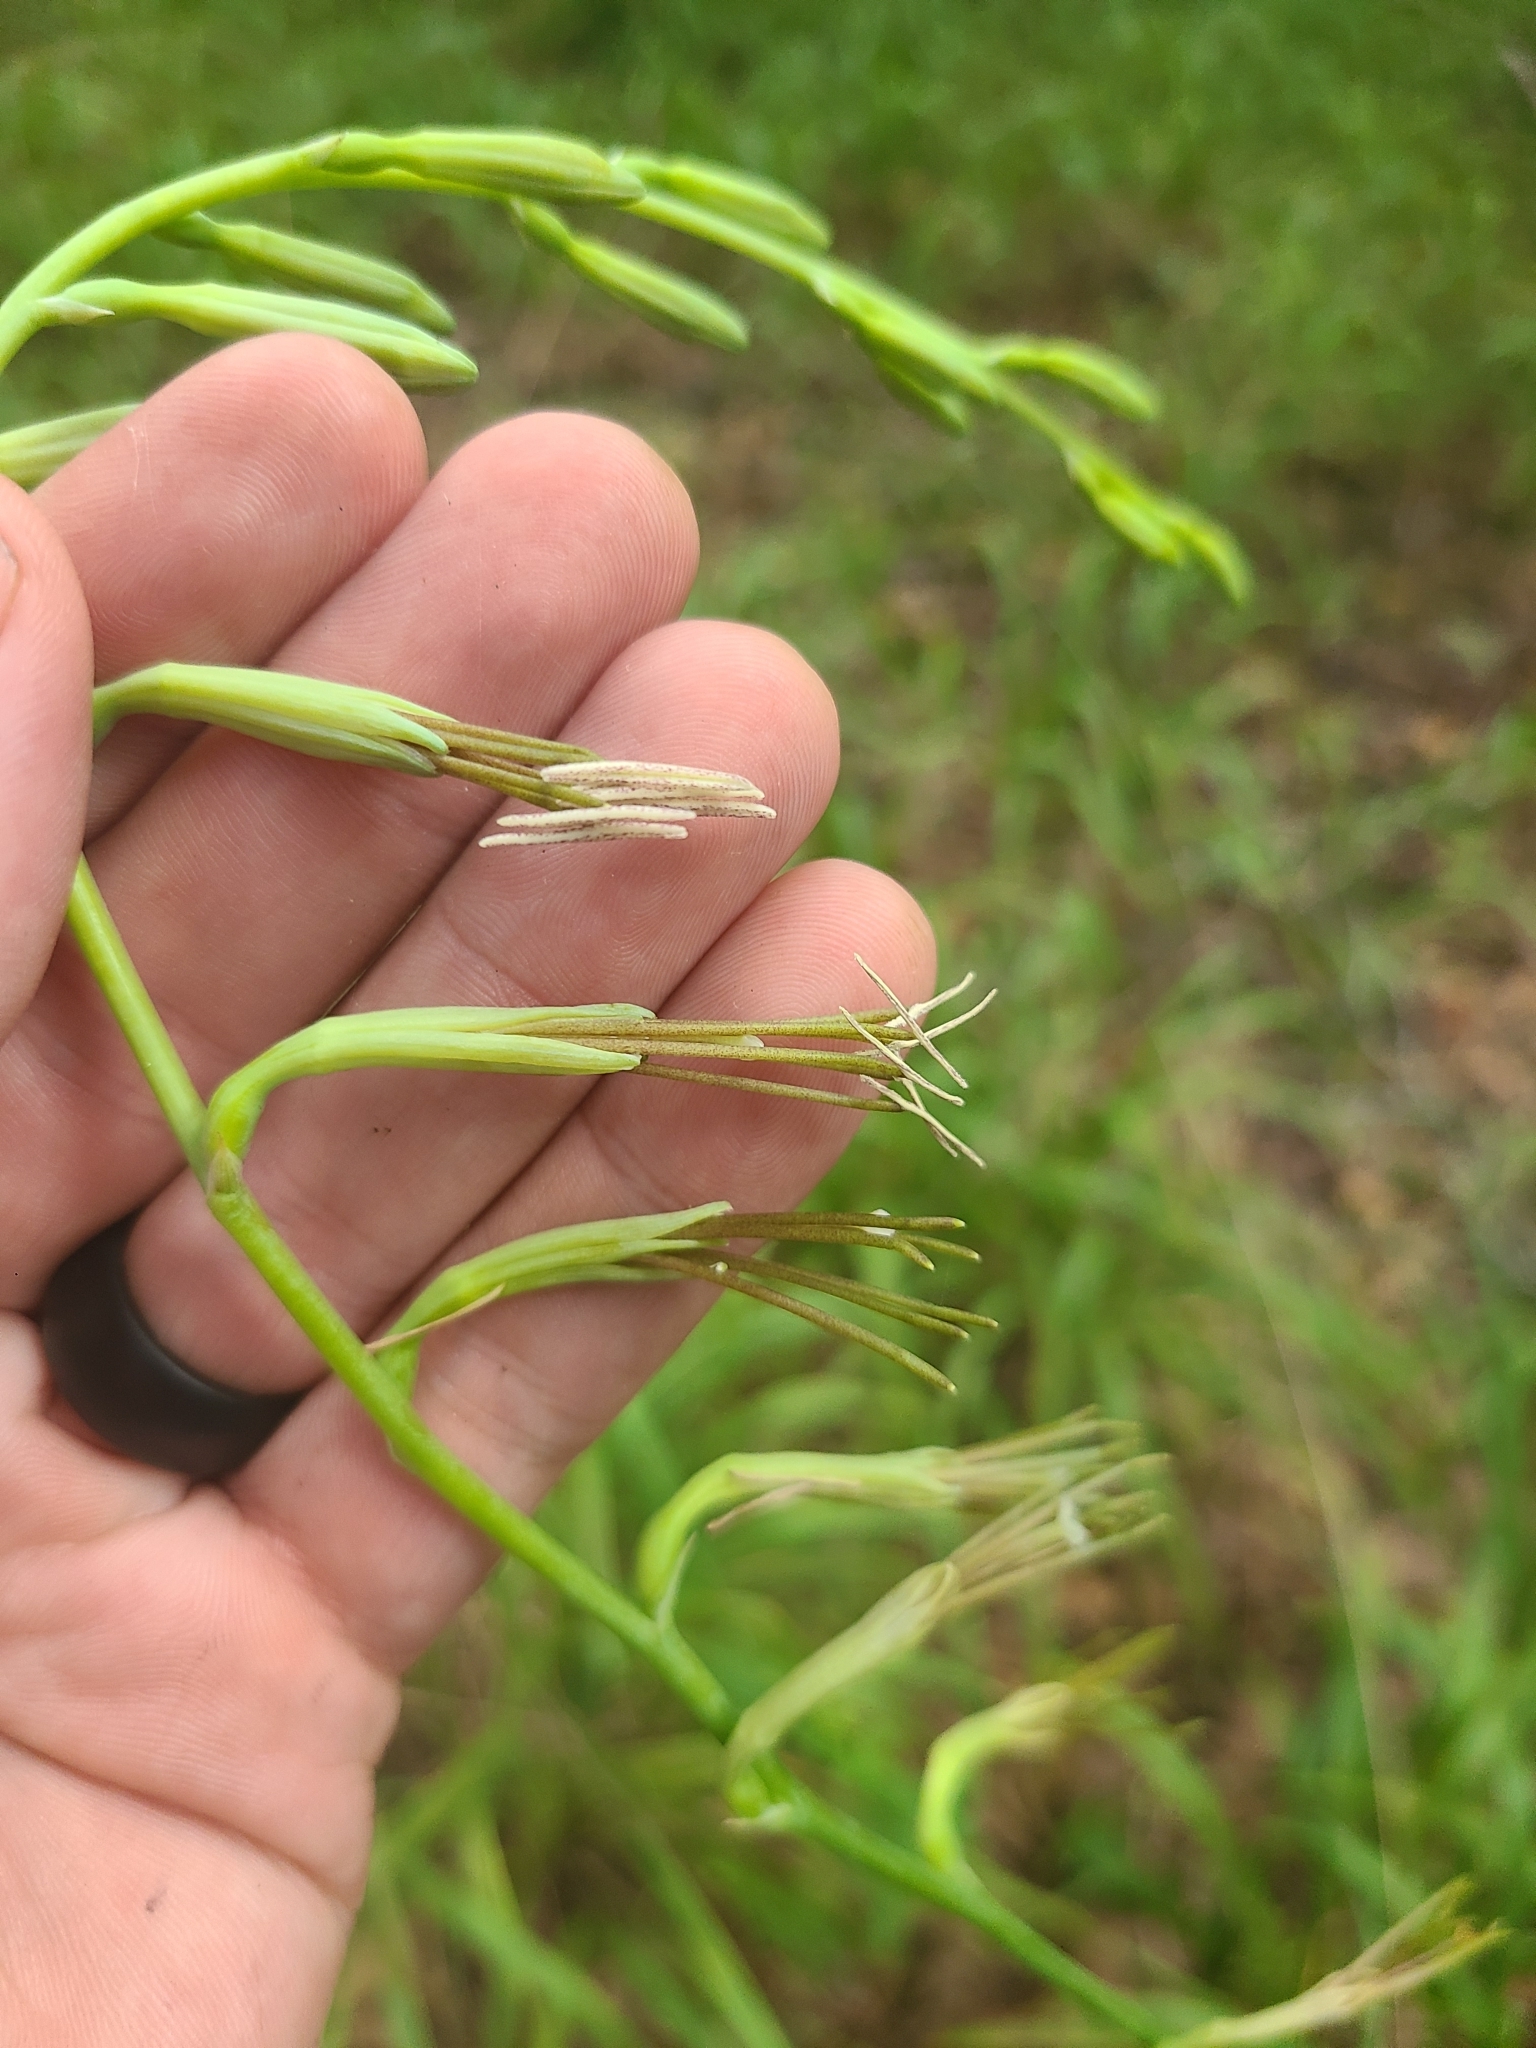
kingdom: Plantae
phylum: Tracheophyta
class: Liliopsida
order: Asparagales
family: Asparagaceae
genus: Agave
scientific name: Agave virginica
